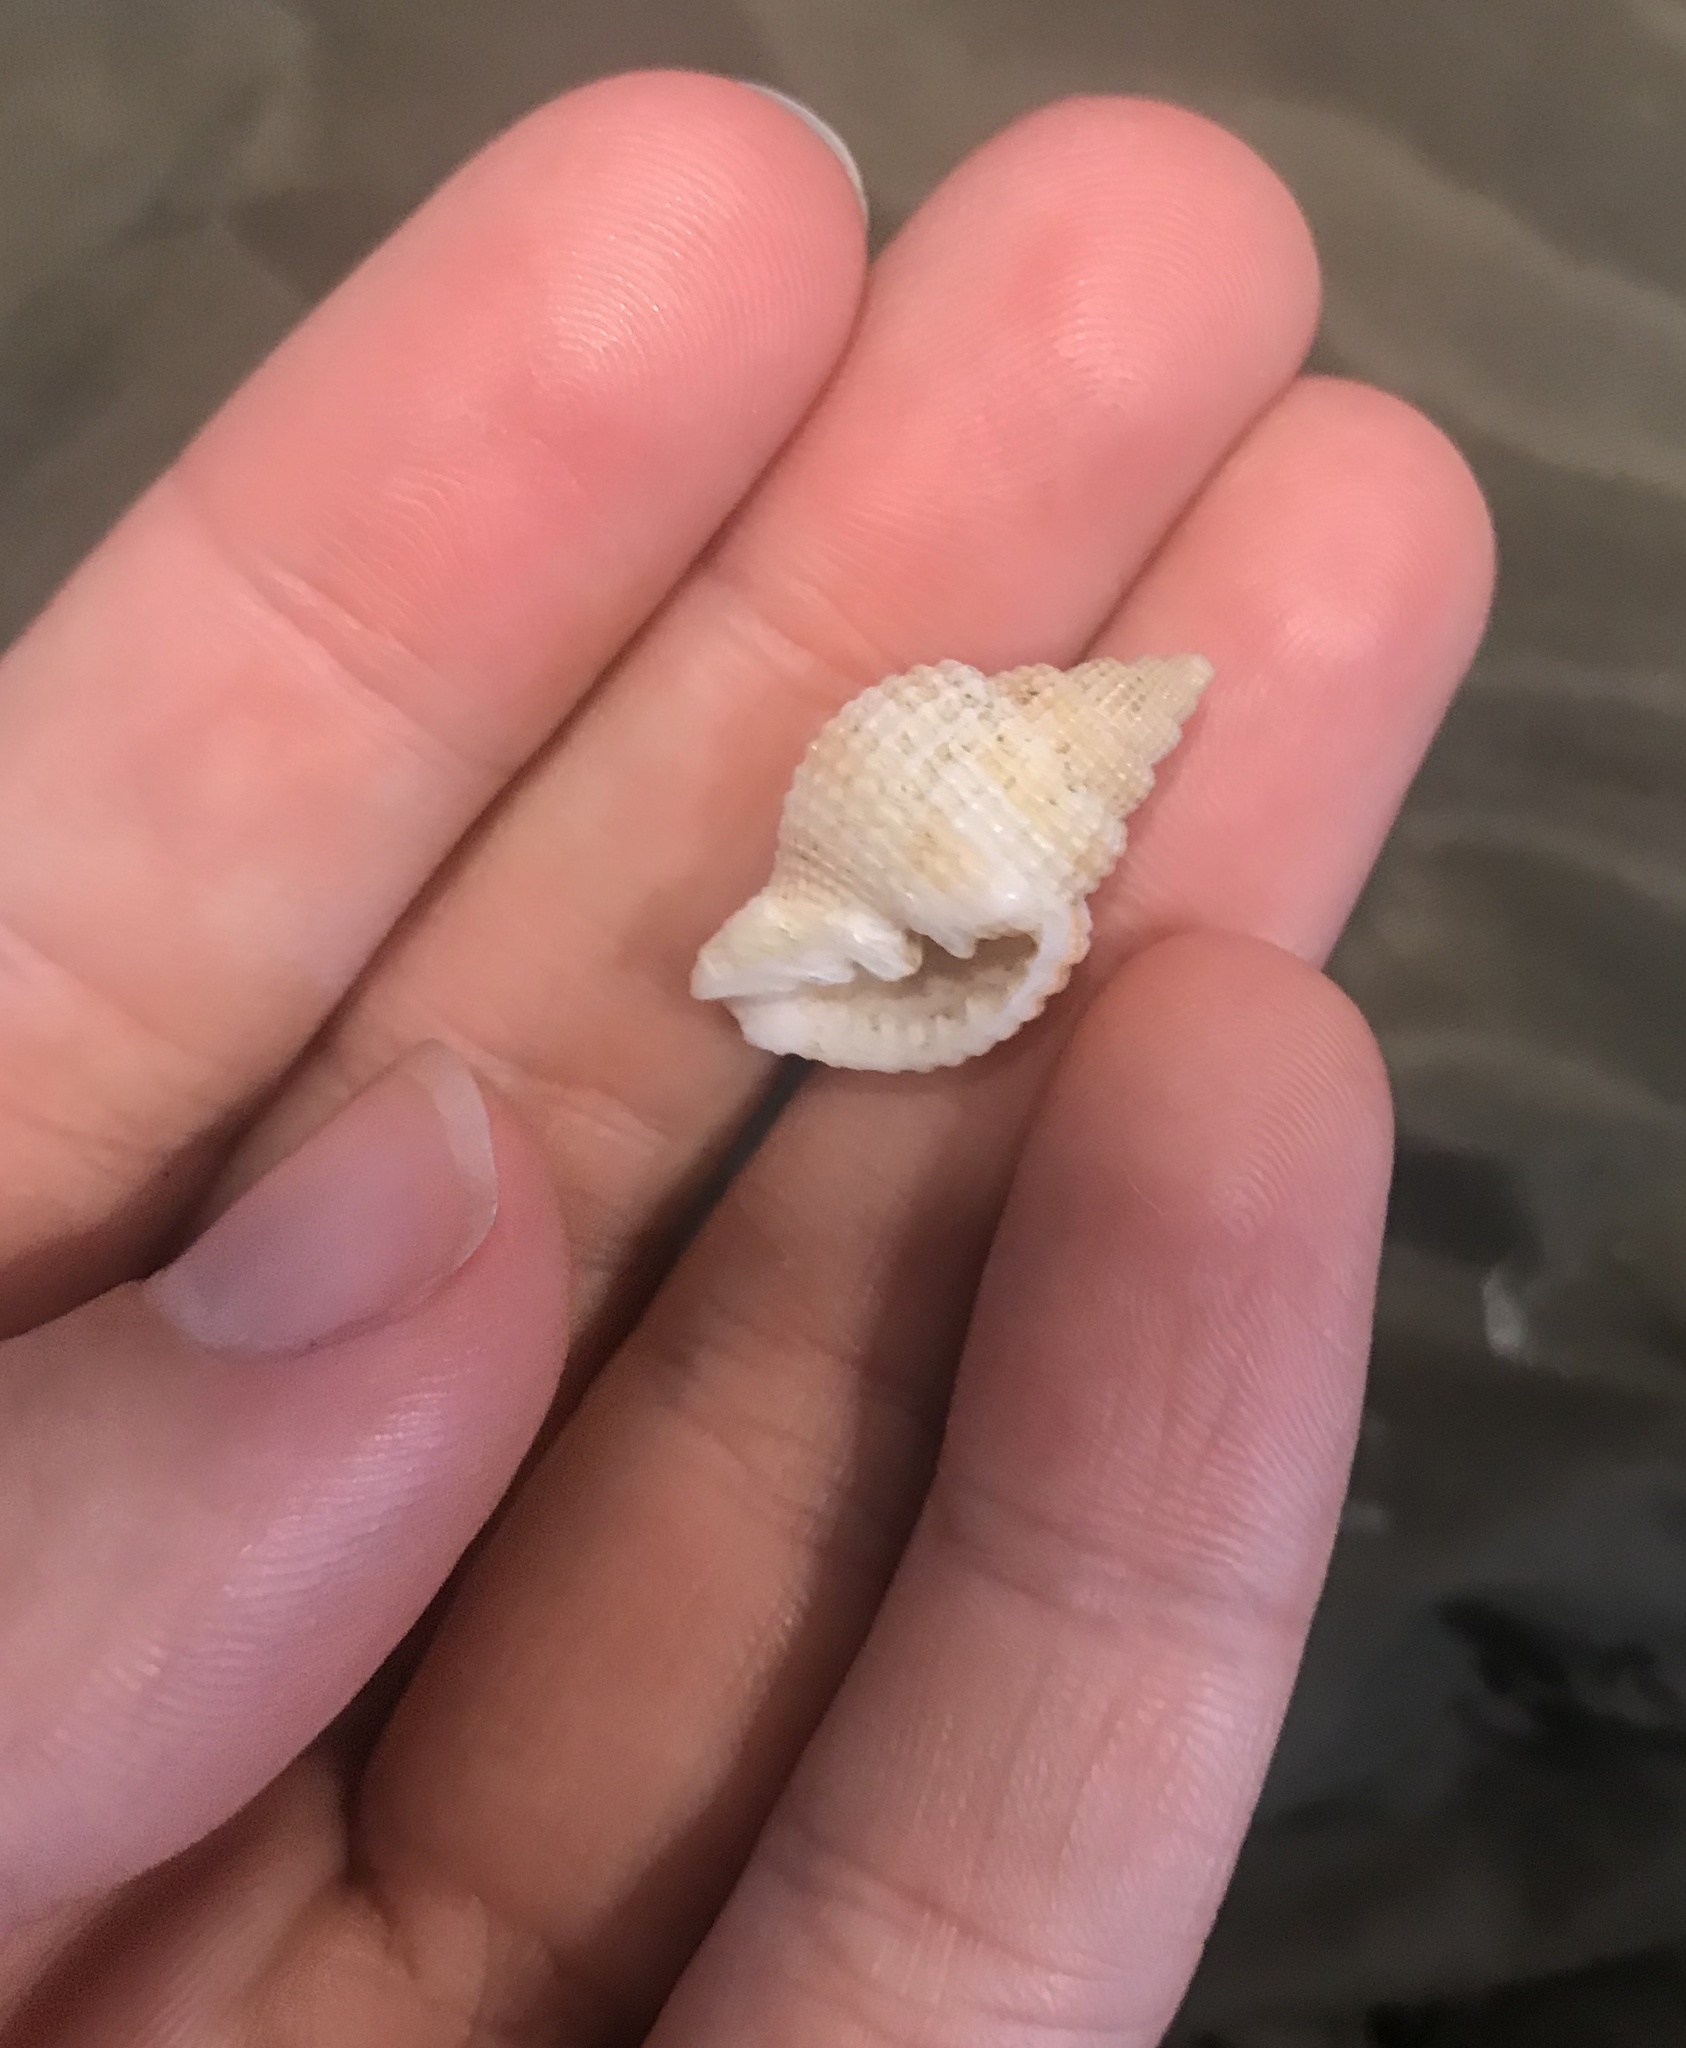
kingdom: Animalia
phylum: Mollusca
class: Gastropoda
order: Neogastropoda
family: Cancellariidae
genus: Cancellaria
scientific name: Cancellaria reticulata
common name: Common nutmeg
